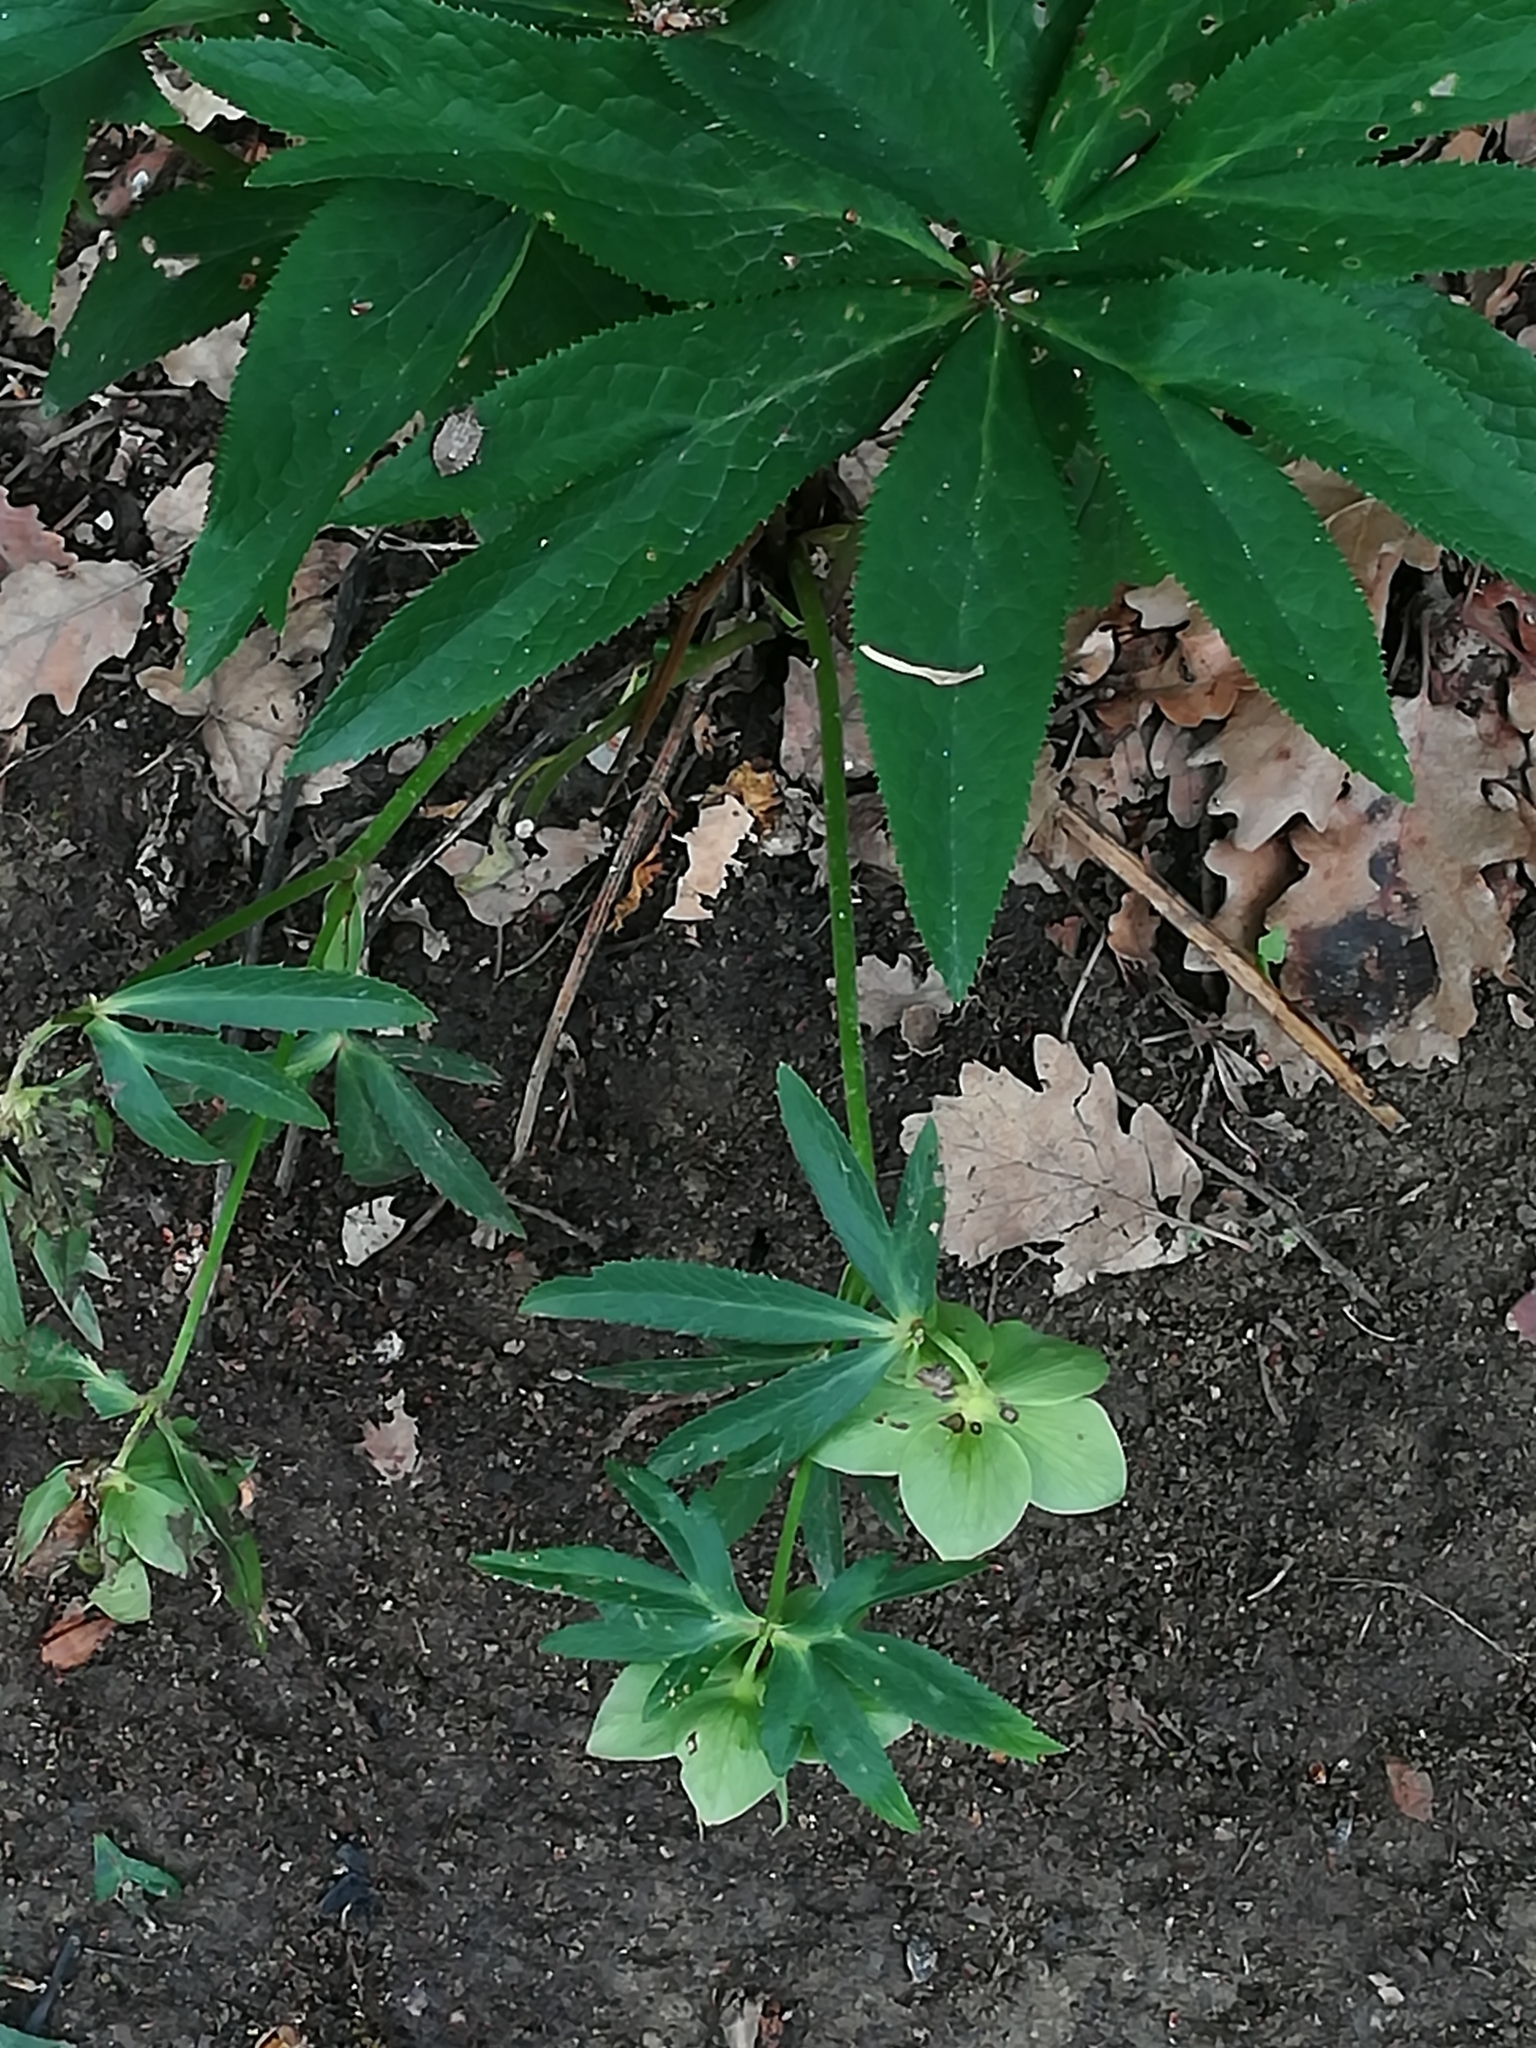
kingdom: Plantae
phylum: Tracheophyta
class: Magnoliopsida
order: Ranunculales
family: Ranunculaceae
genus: Helleborus
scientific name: Helleborus viridis
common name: Green hellebore
